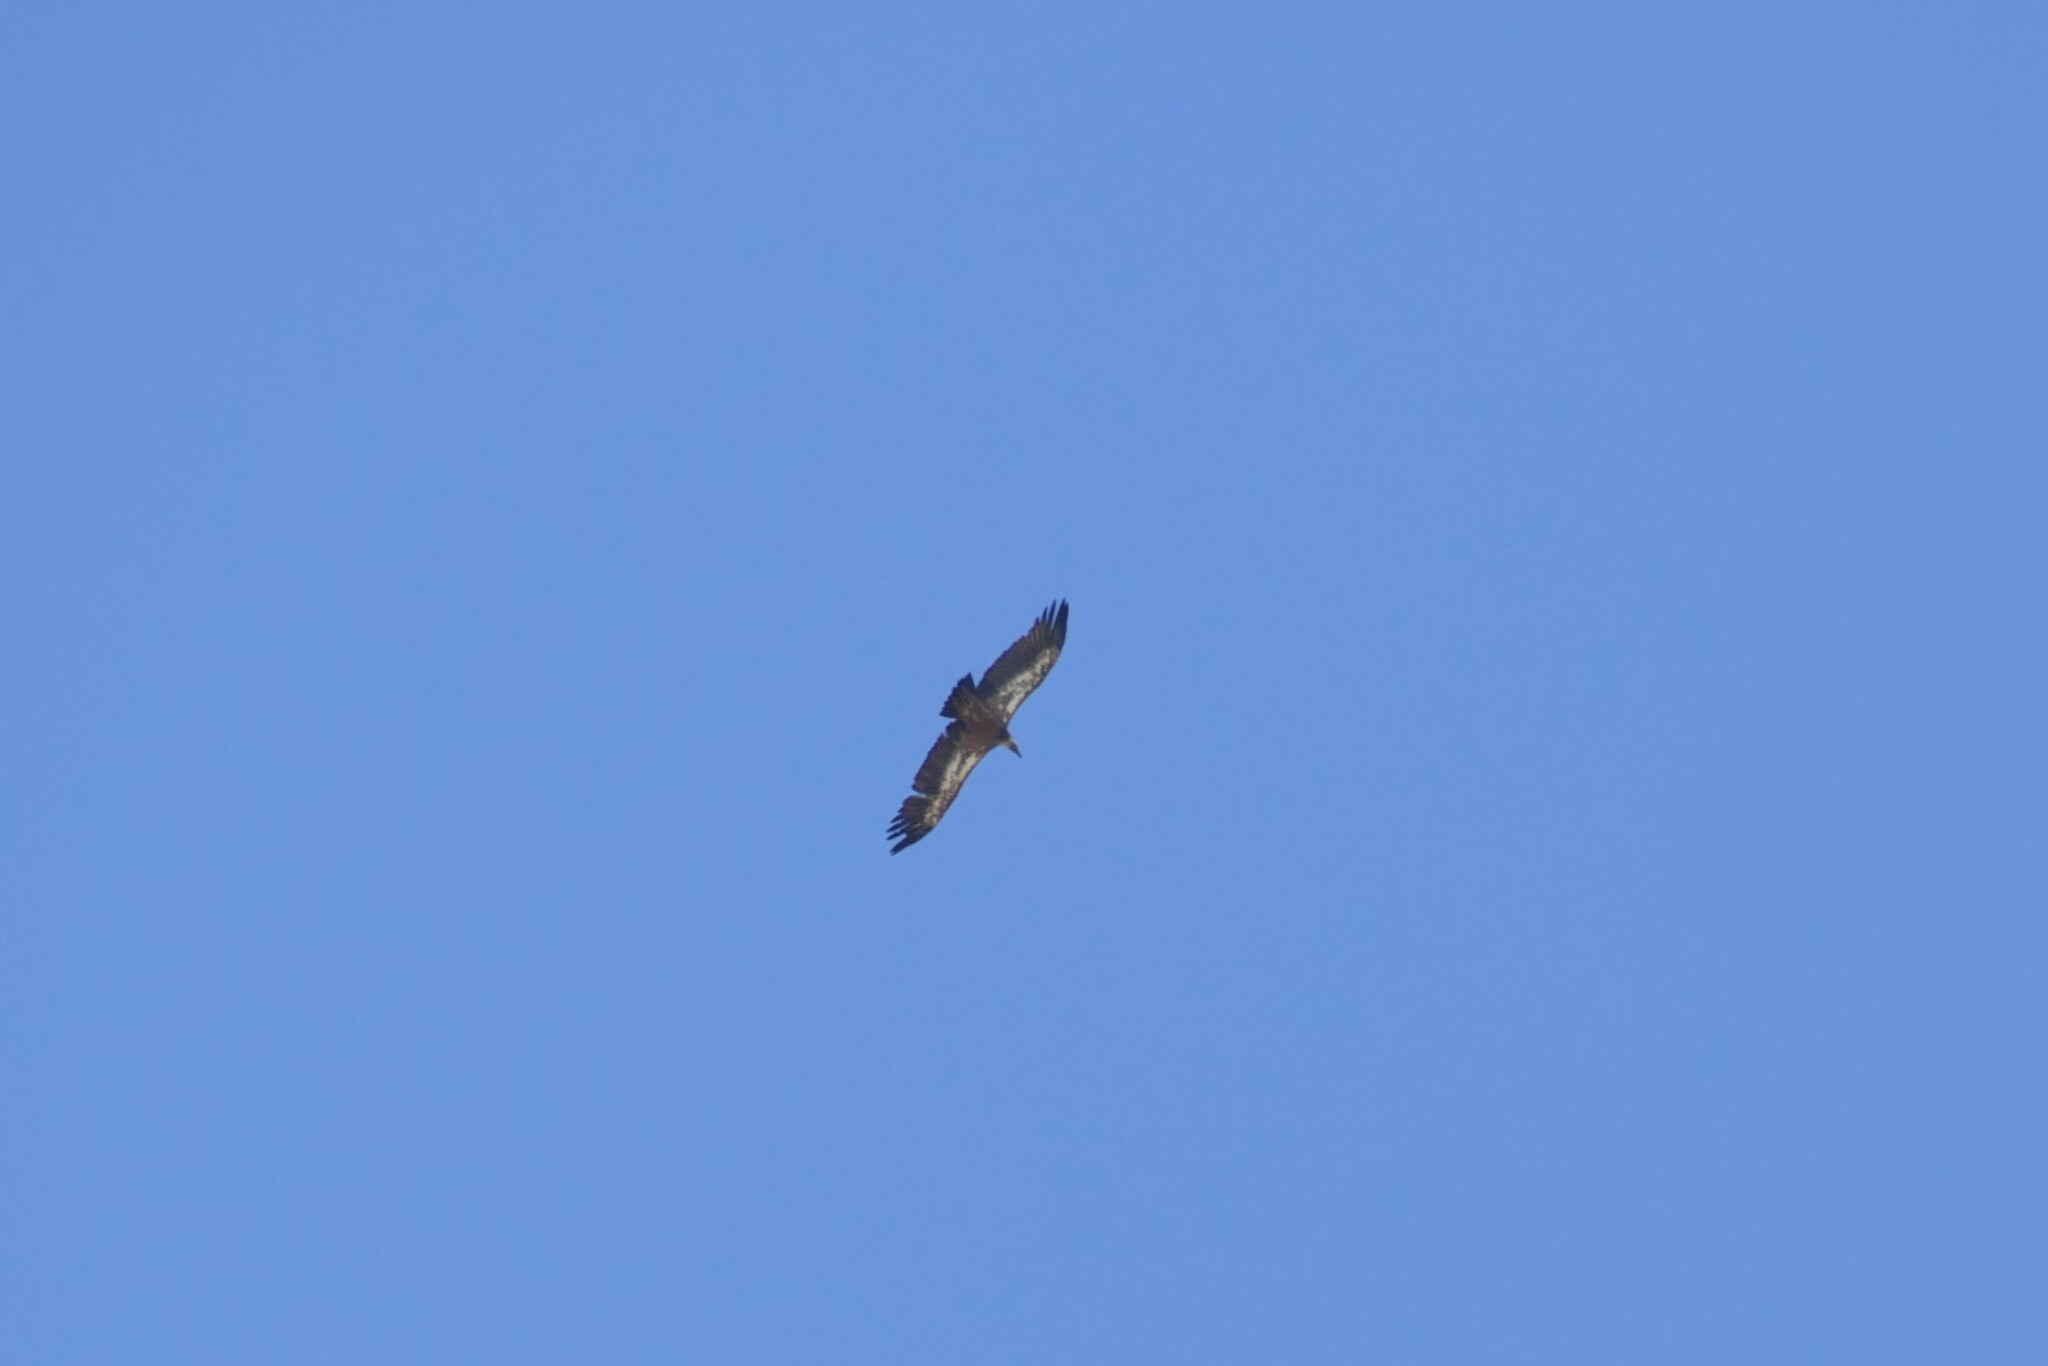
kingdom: Animalia
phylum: Chordata
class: Aves
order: Accipitriformes
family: Accipitridae
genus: Gyps
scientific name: Gyps fulvus
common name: Griffon vulture
